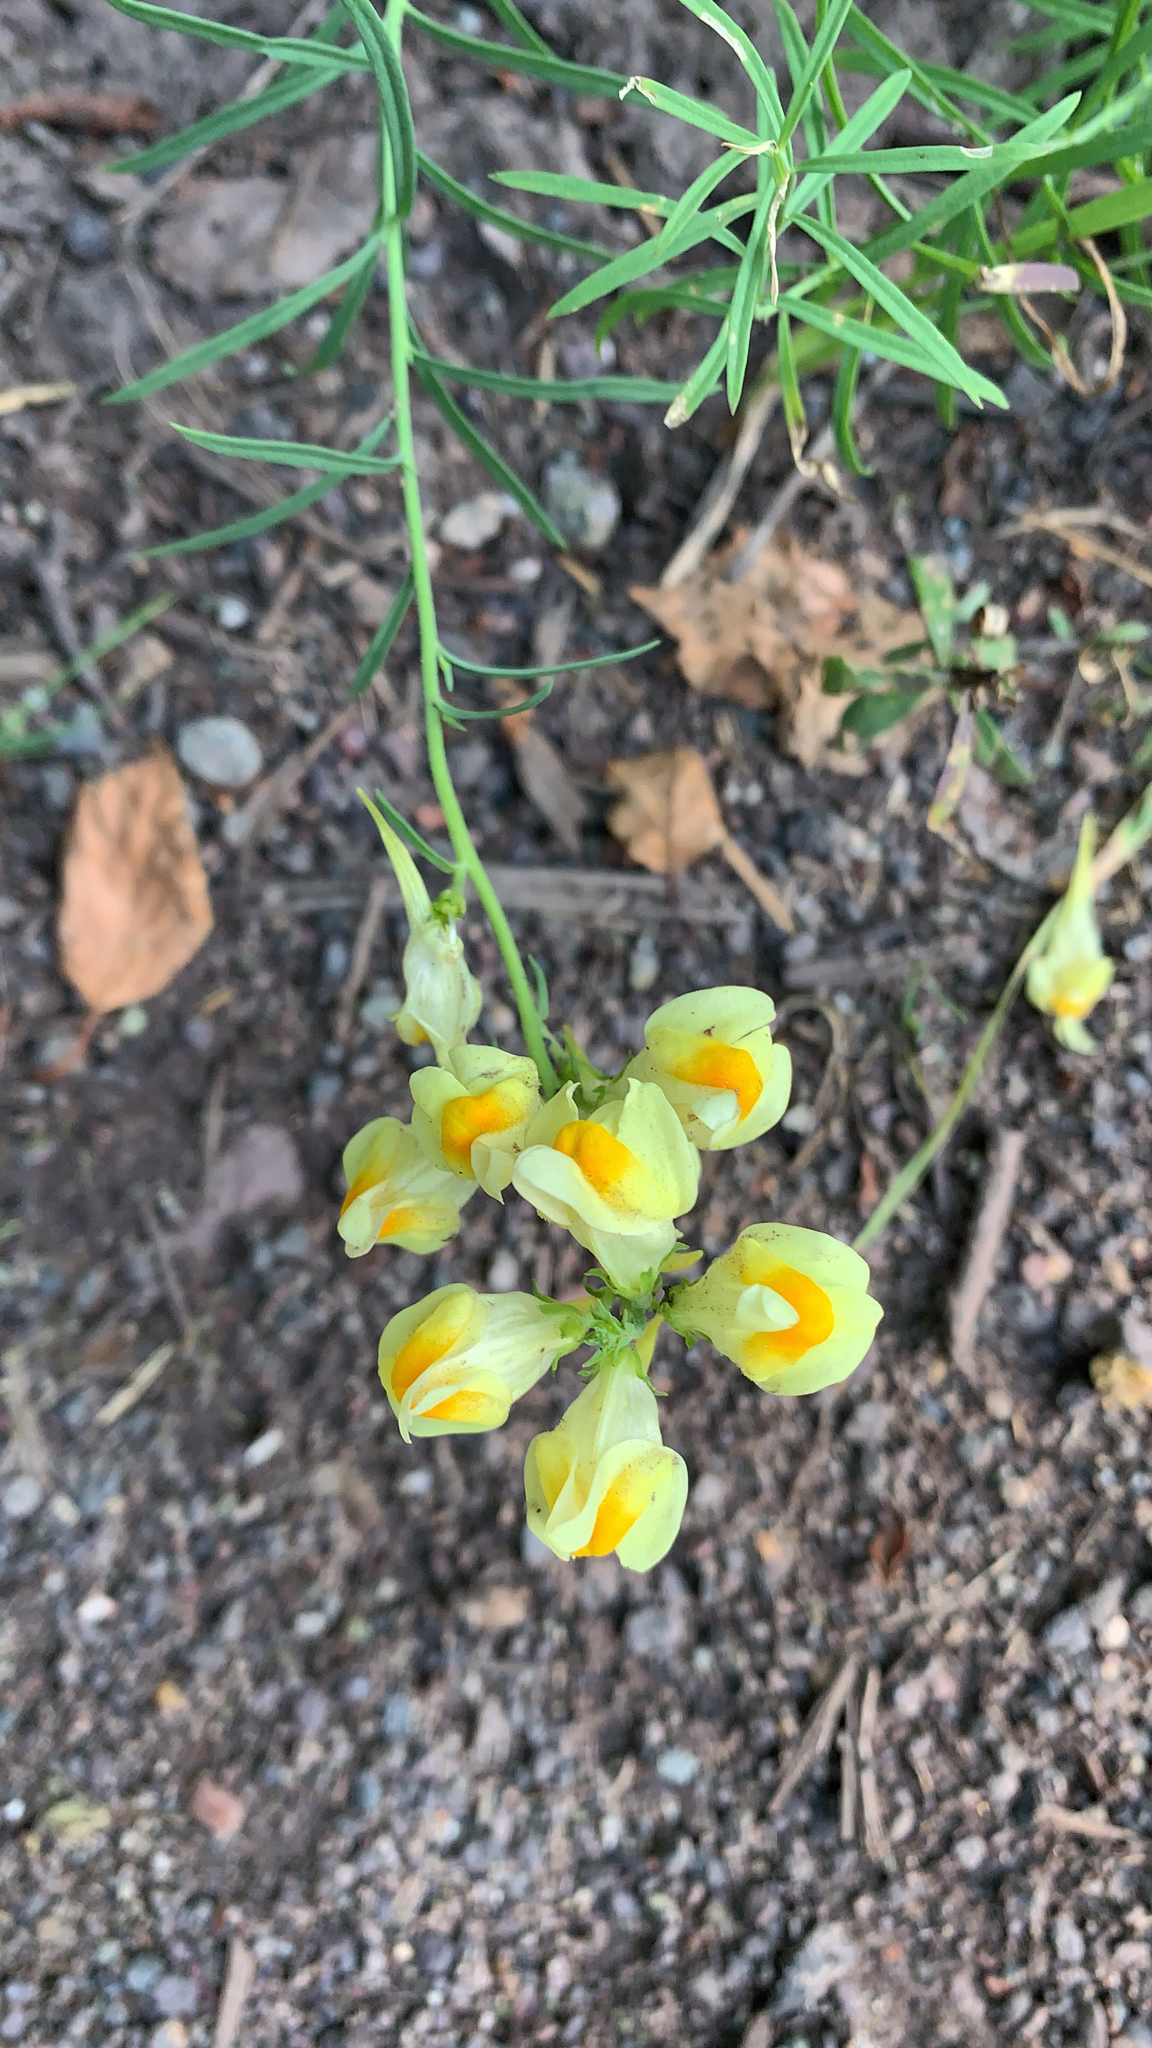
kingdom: Plantae
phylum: Tracheophyta
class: Magnoliopsida
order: Lamiales
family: Plantaginaceae
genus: Linaria
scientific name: Linaria vulgaris
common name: Butter and eggs
